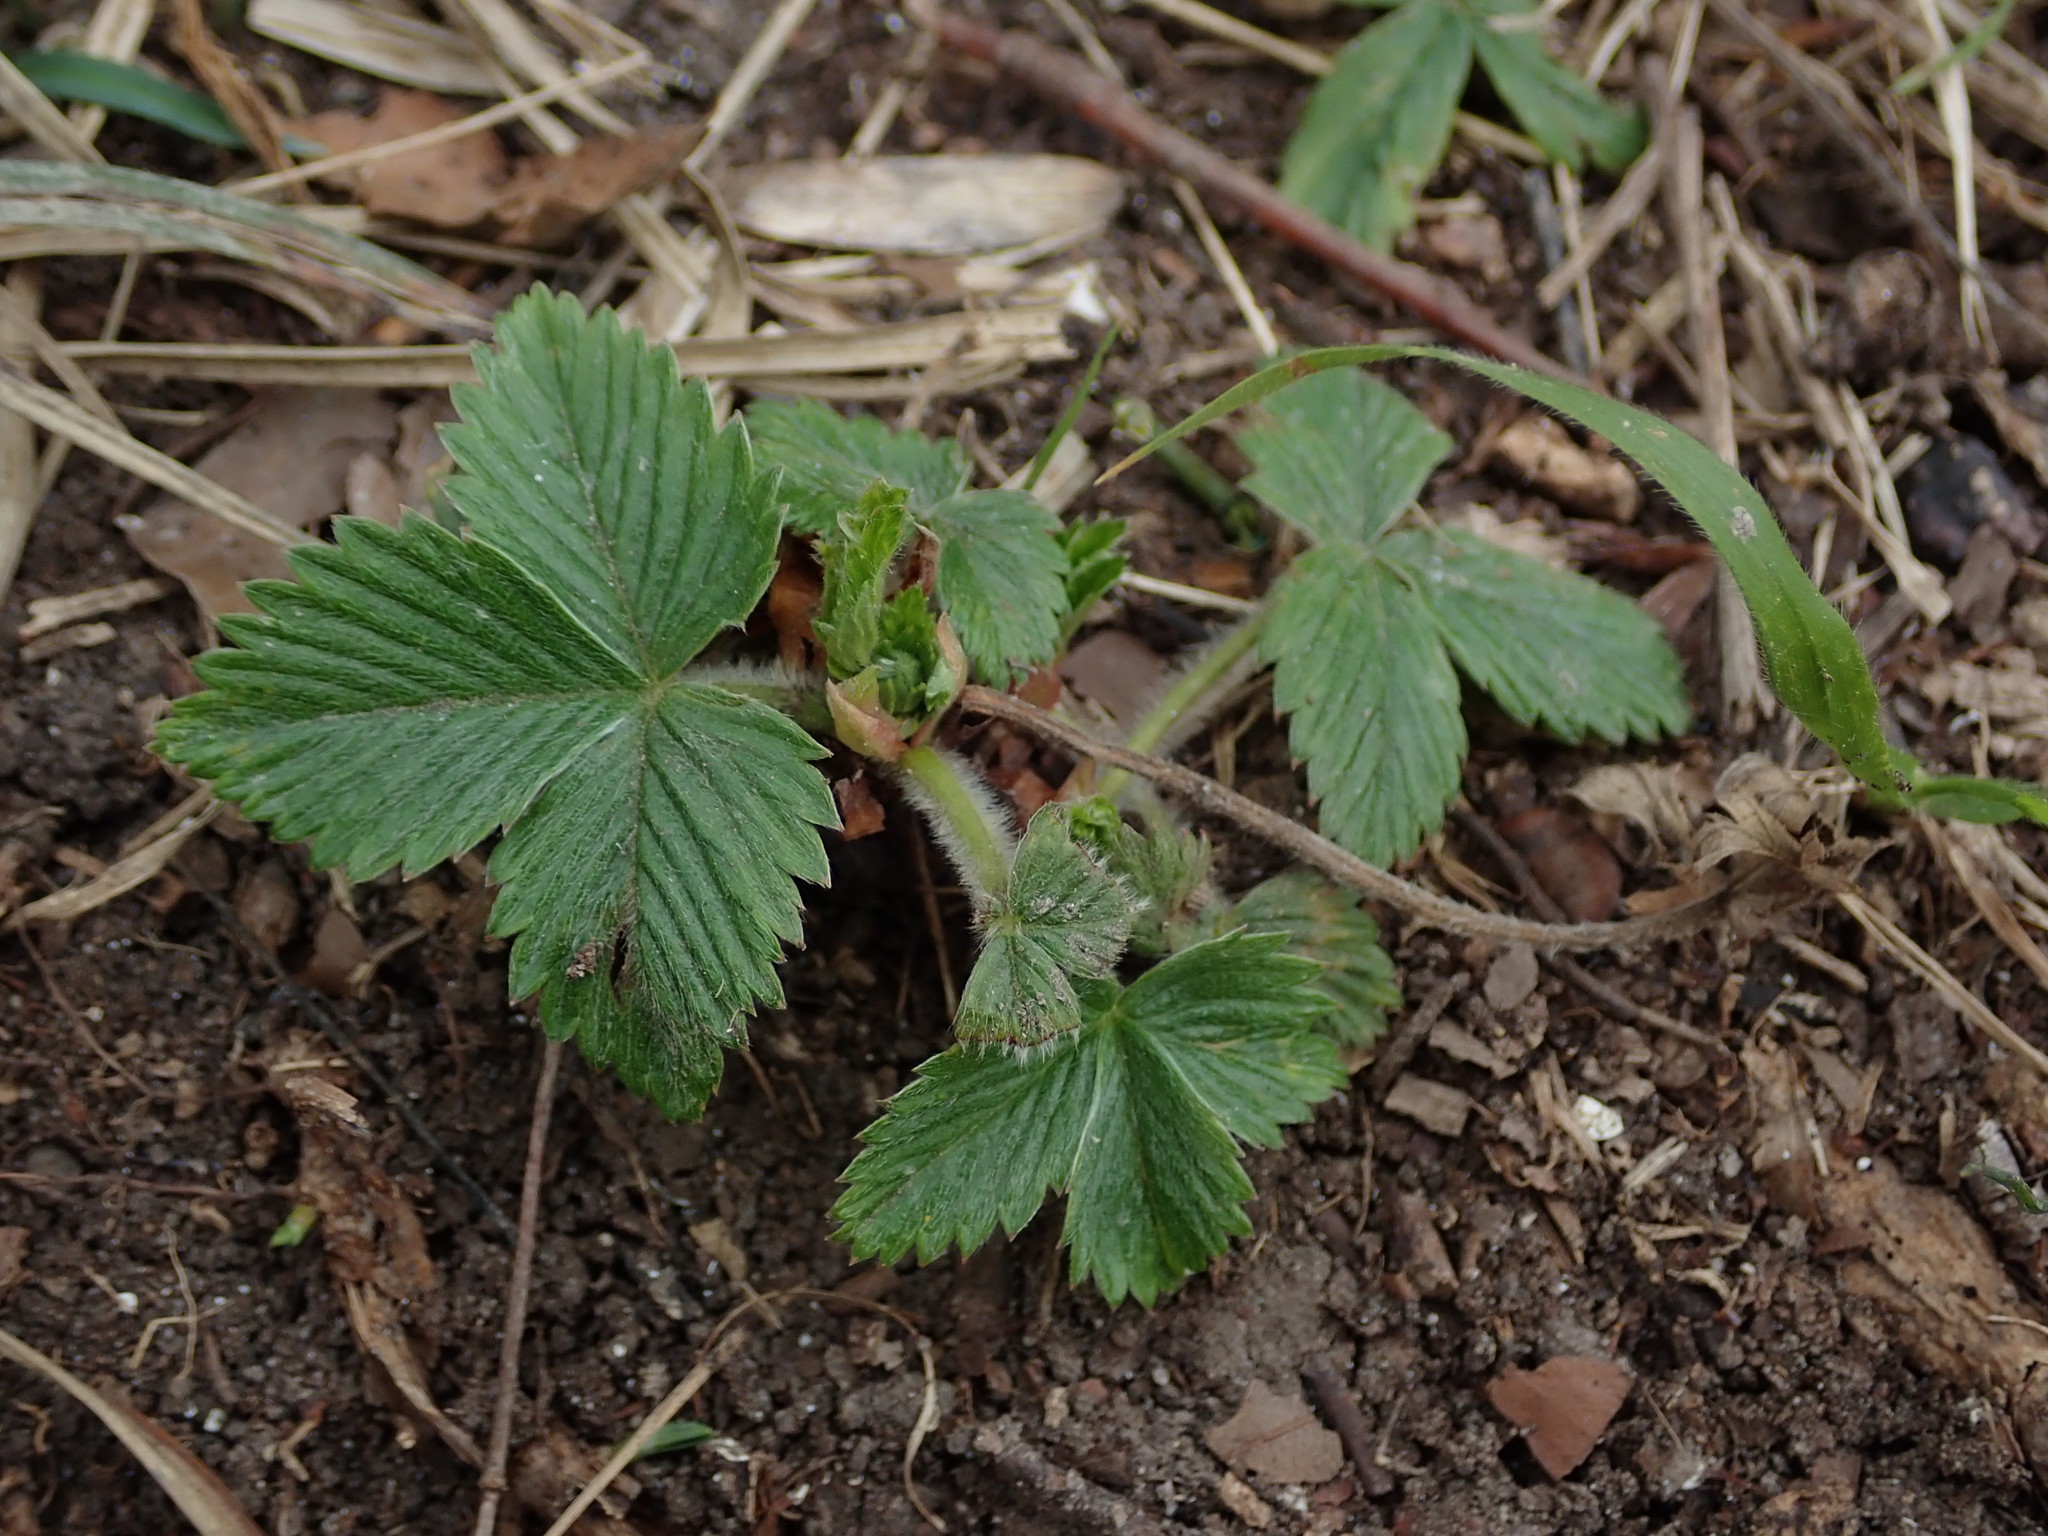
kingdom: Plantae
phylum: Tracheophyta
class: Magnoliopsida
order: Rosales
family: Rosaceae
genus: Fragaria
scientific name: Fragaria vesca
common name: Wild strawberry
